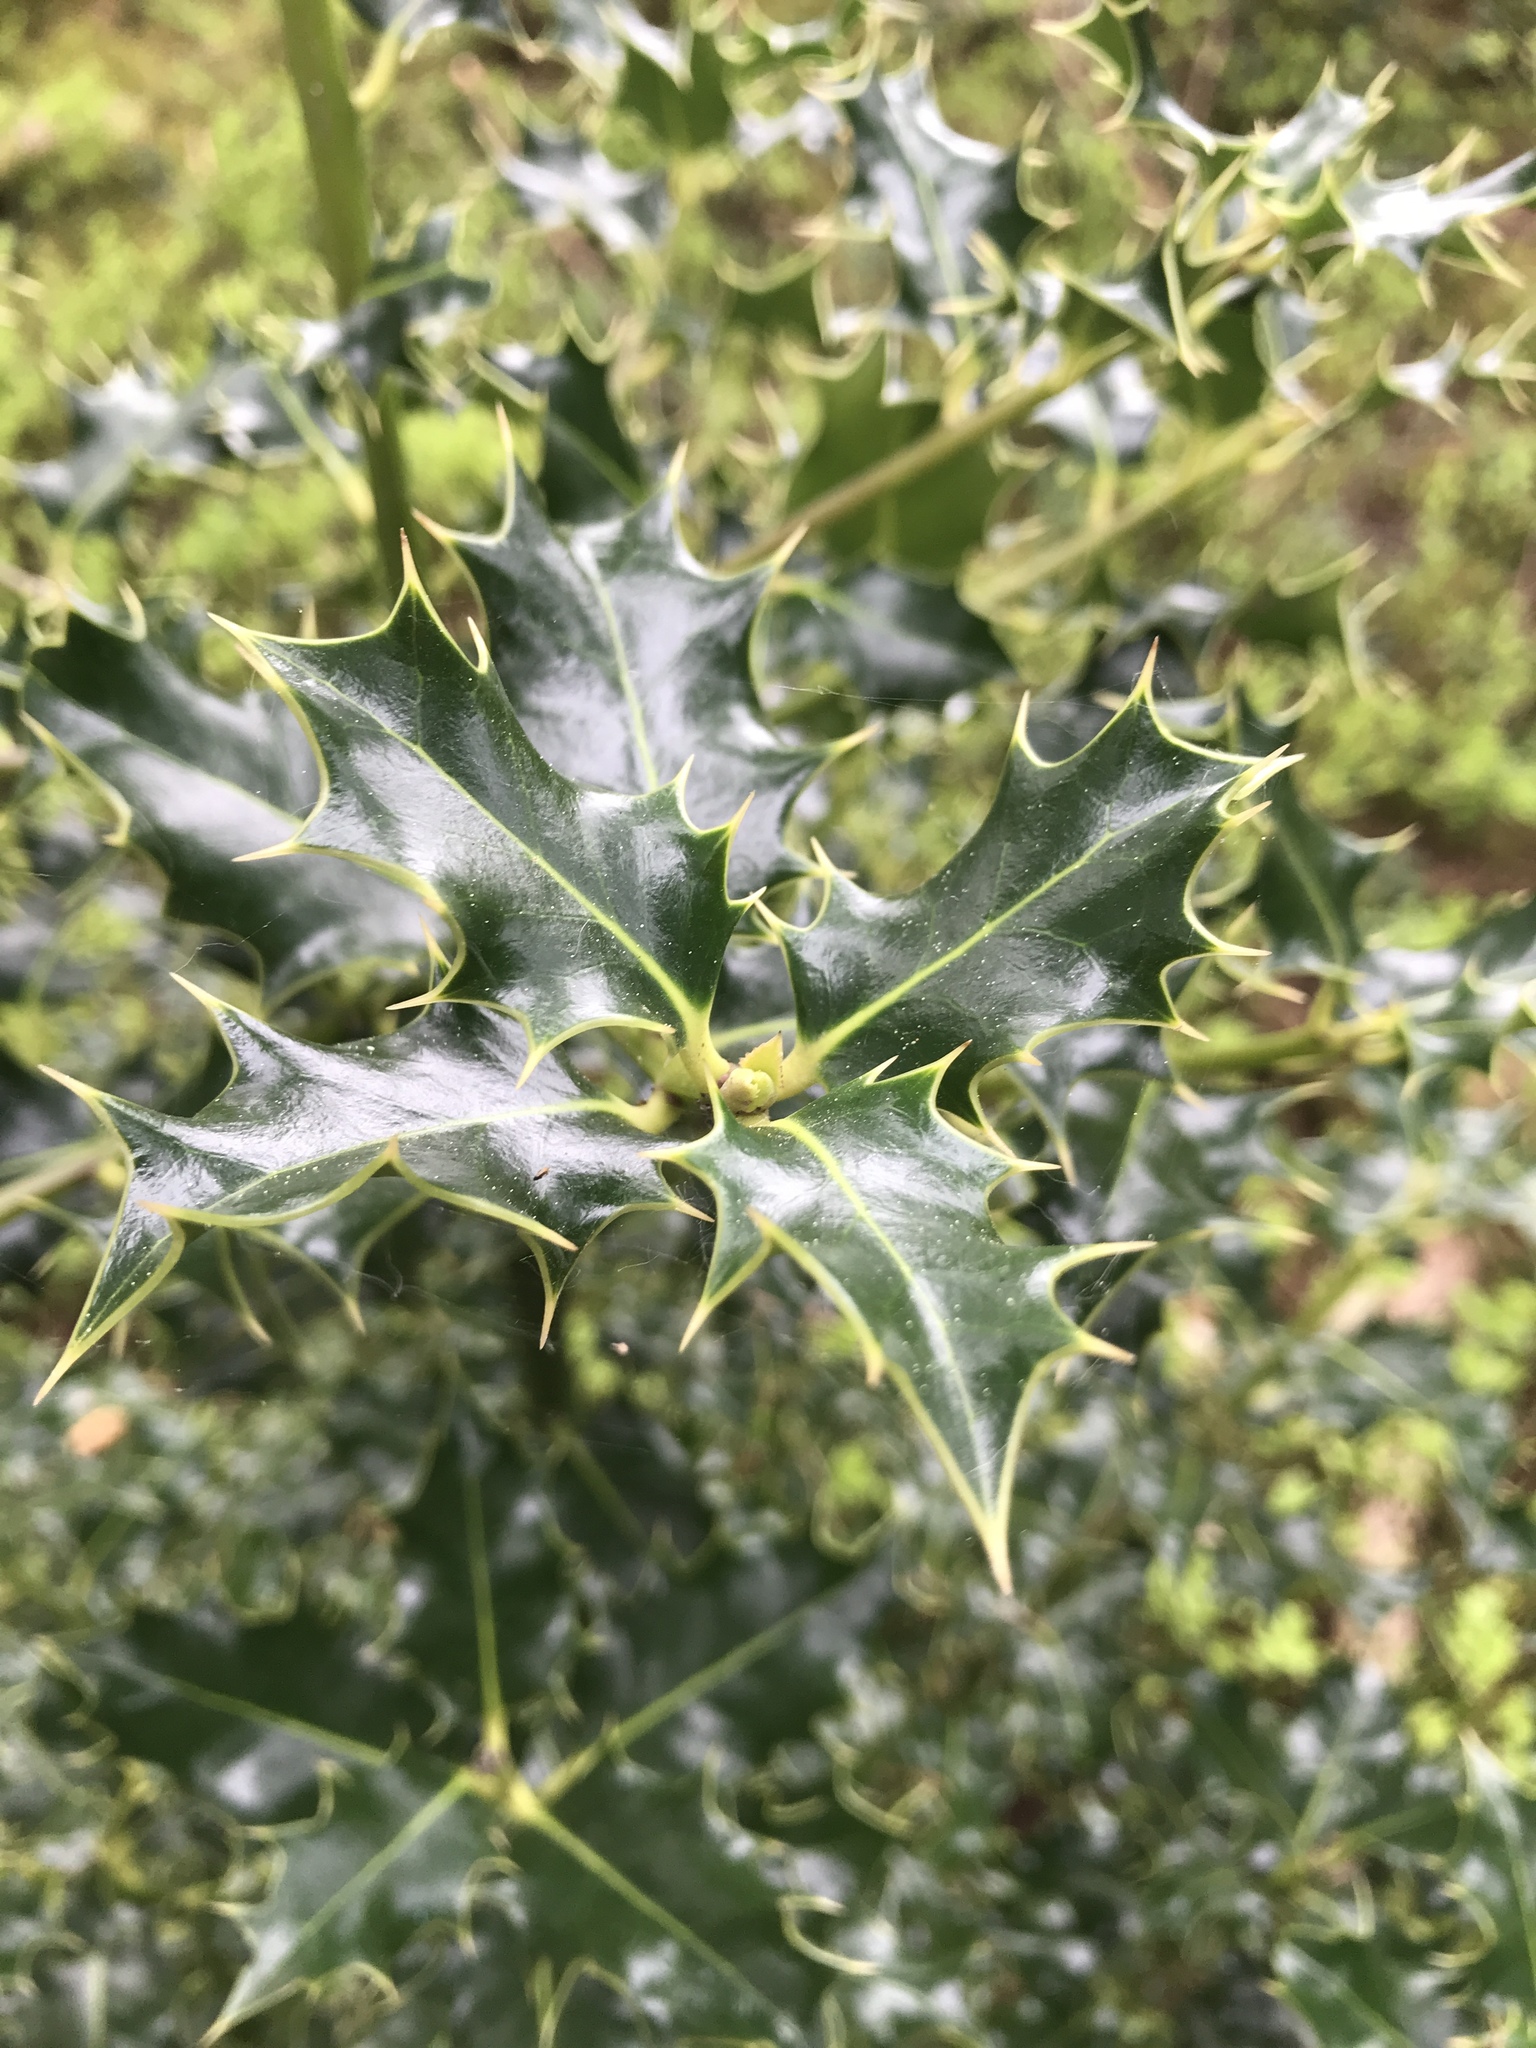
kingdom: Plantae
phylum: Tracheophyta
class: Magnoliopsida
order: Aquifoliales
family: Aquifoliaceae
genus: Ilex
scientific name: Ilex aquifolium
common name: English holly
